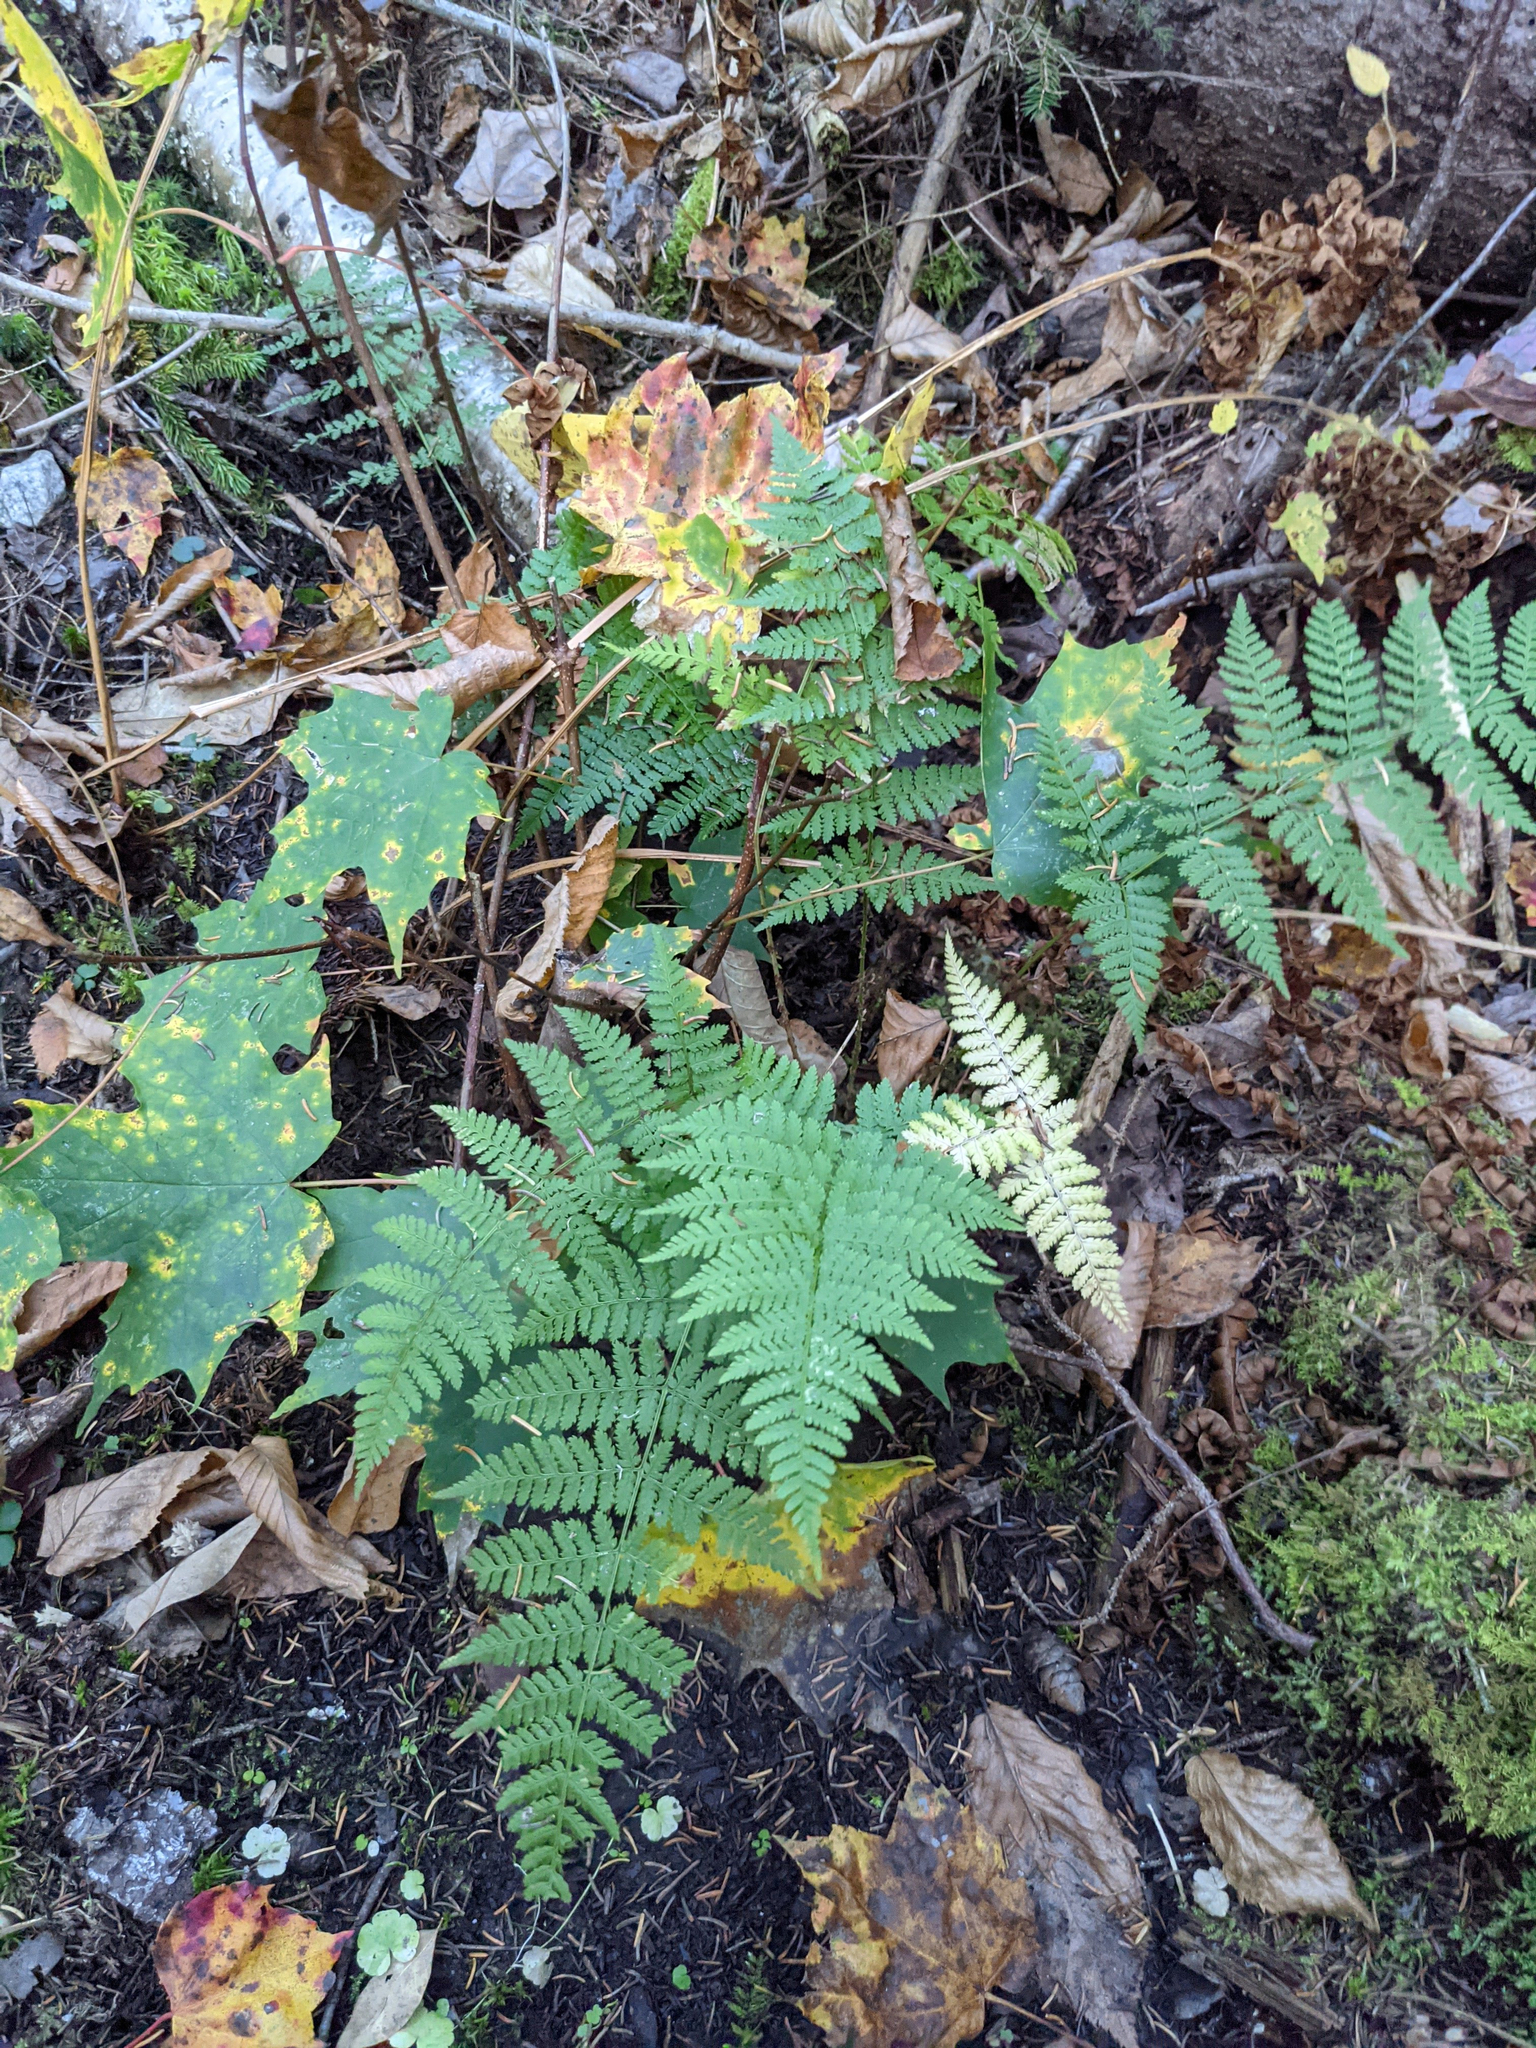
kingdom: Plantae
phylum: Tracheophyta
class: Polypodiopsida
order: Polypodiales
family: Dryopteridaceae
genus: Dryopteris
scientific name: Dryopteris intermedia
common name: Evergreen wood fern
